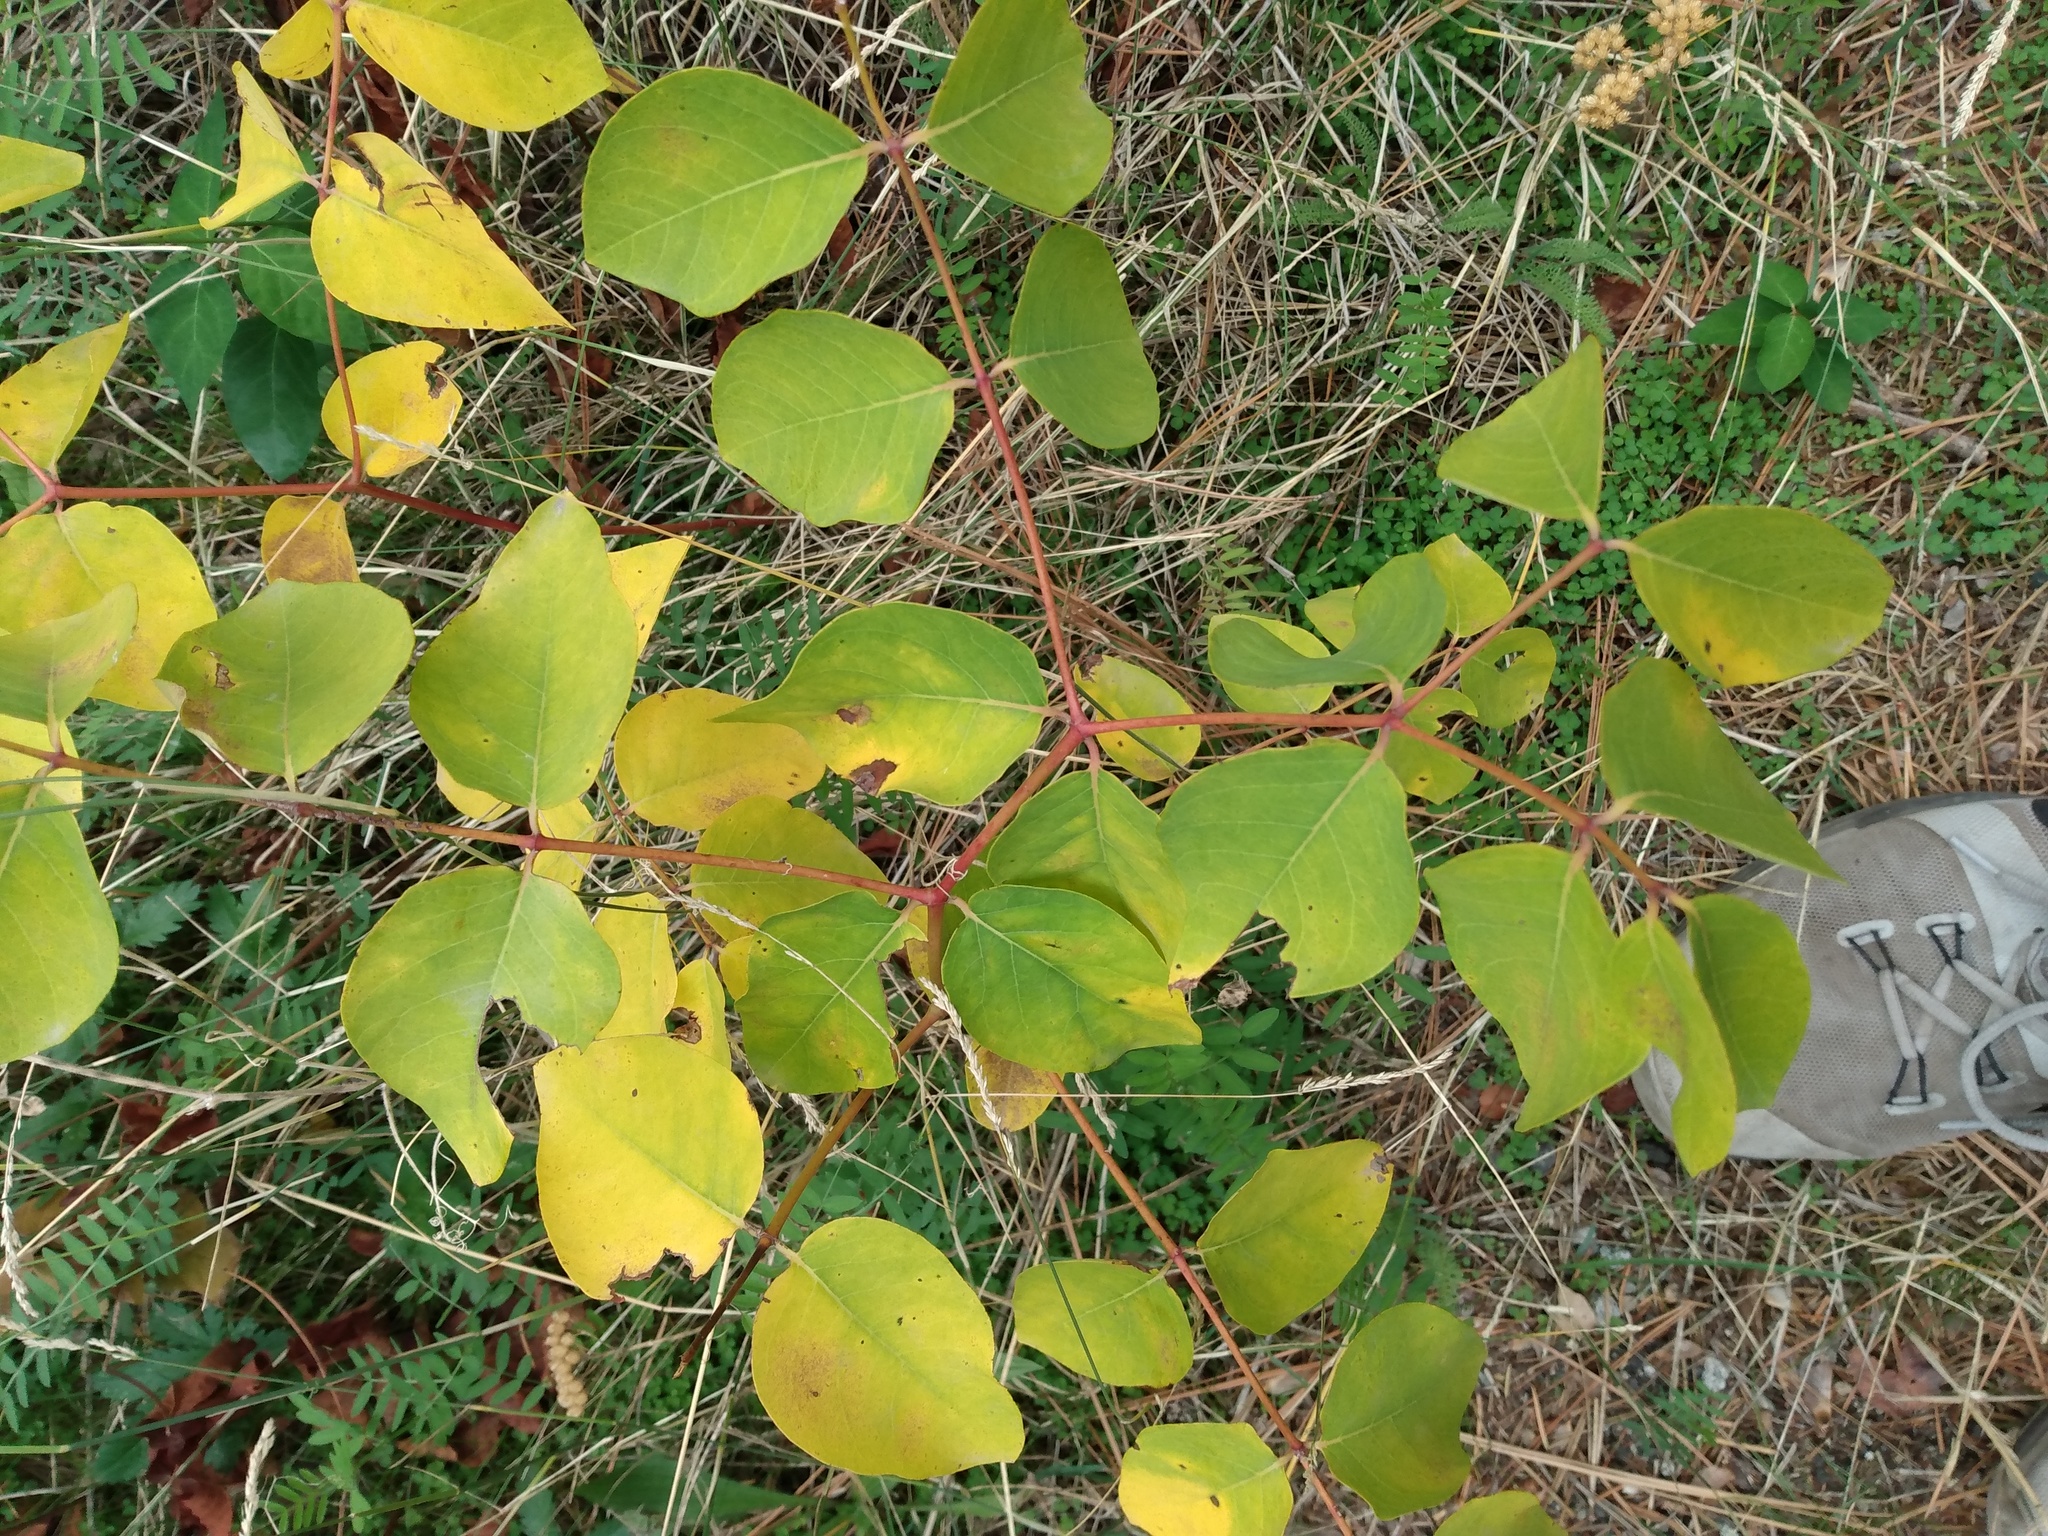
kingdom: Plantae
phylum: Tracheophyta
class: Magnoliopsida
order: Gentianales
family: Apocynaceae
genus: Apocynum
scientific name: Apocynum androsaemifolium
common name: Spreading dogbane
